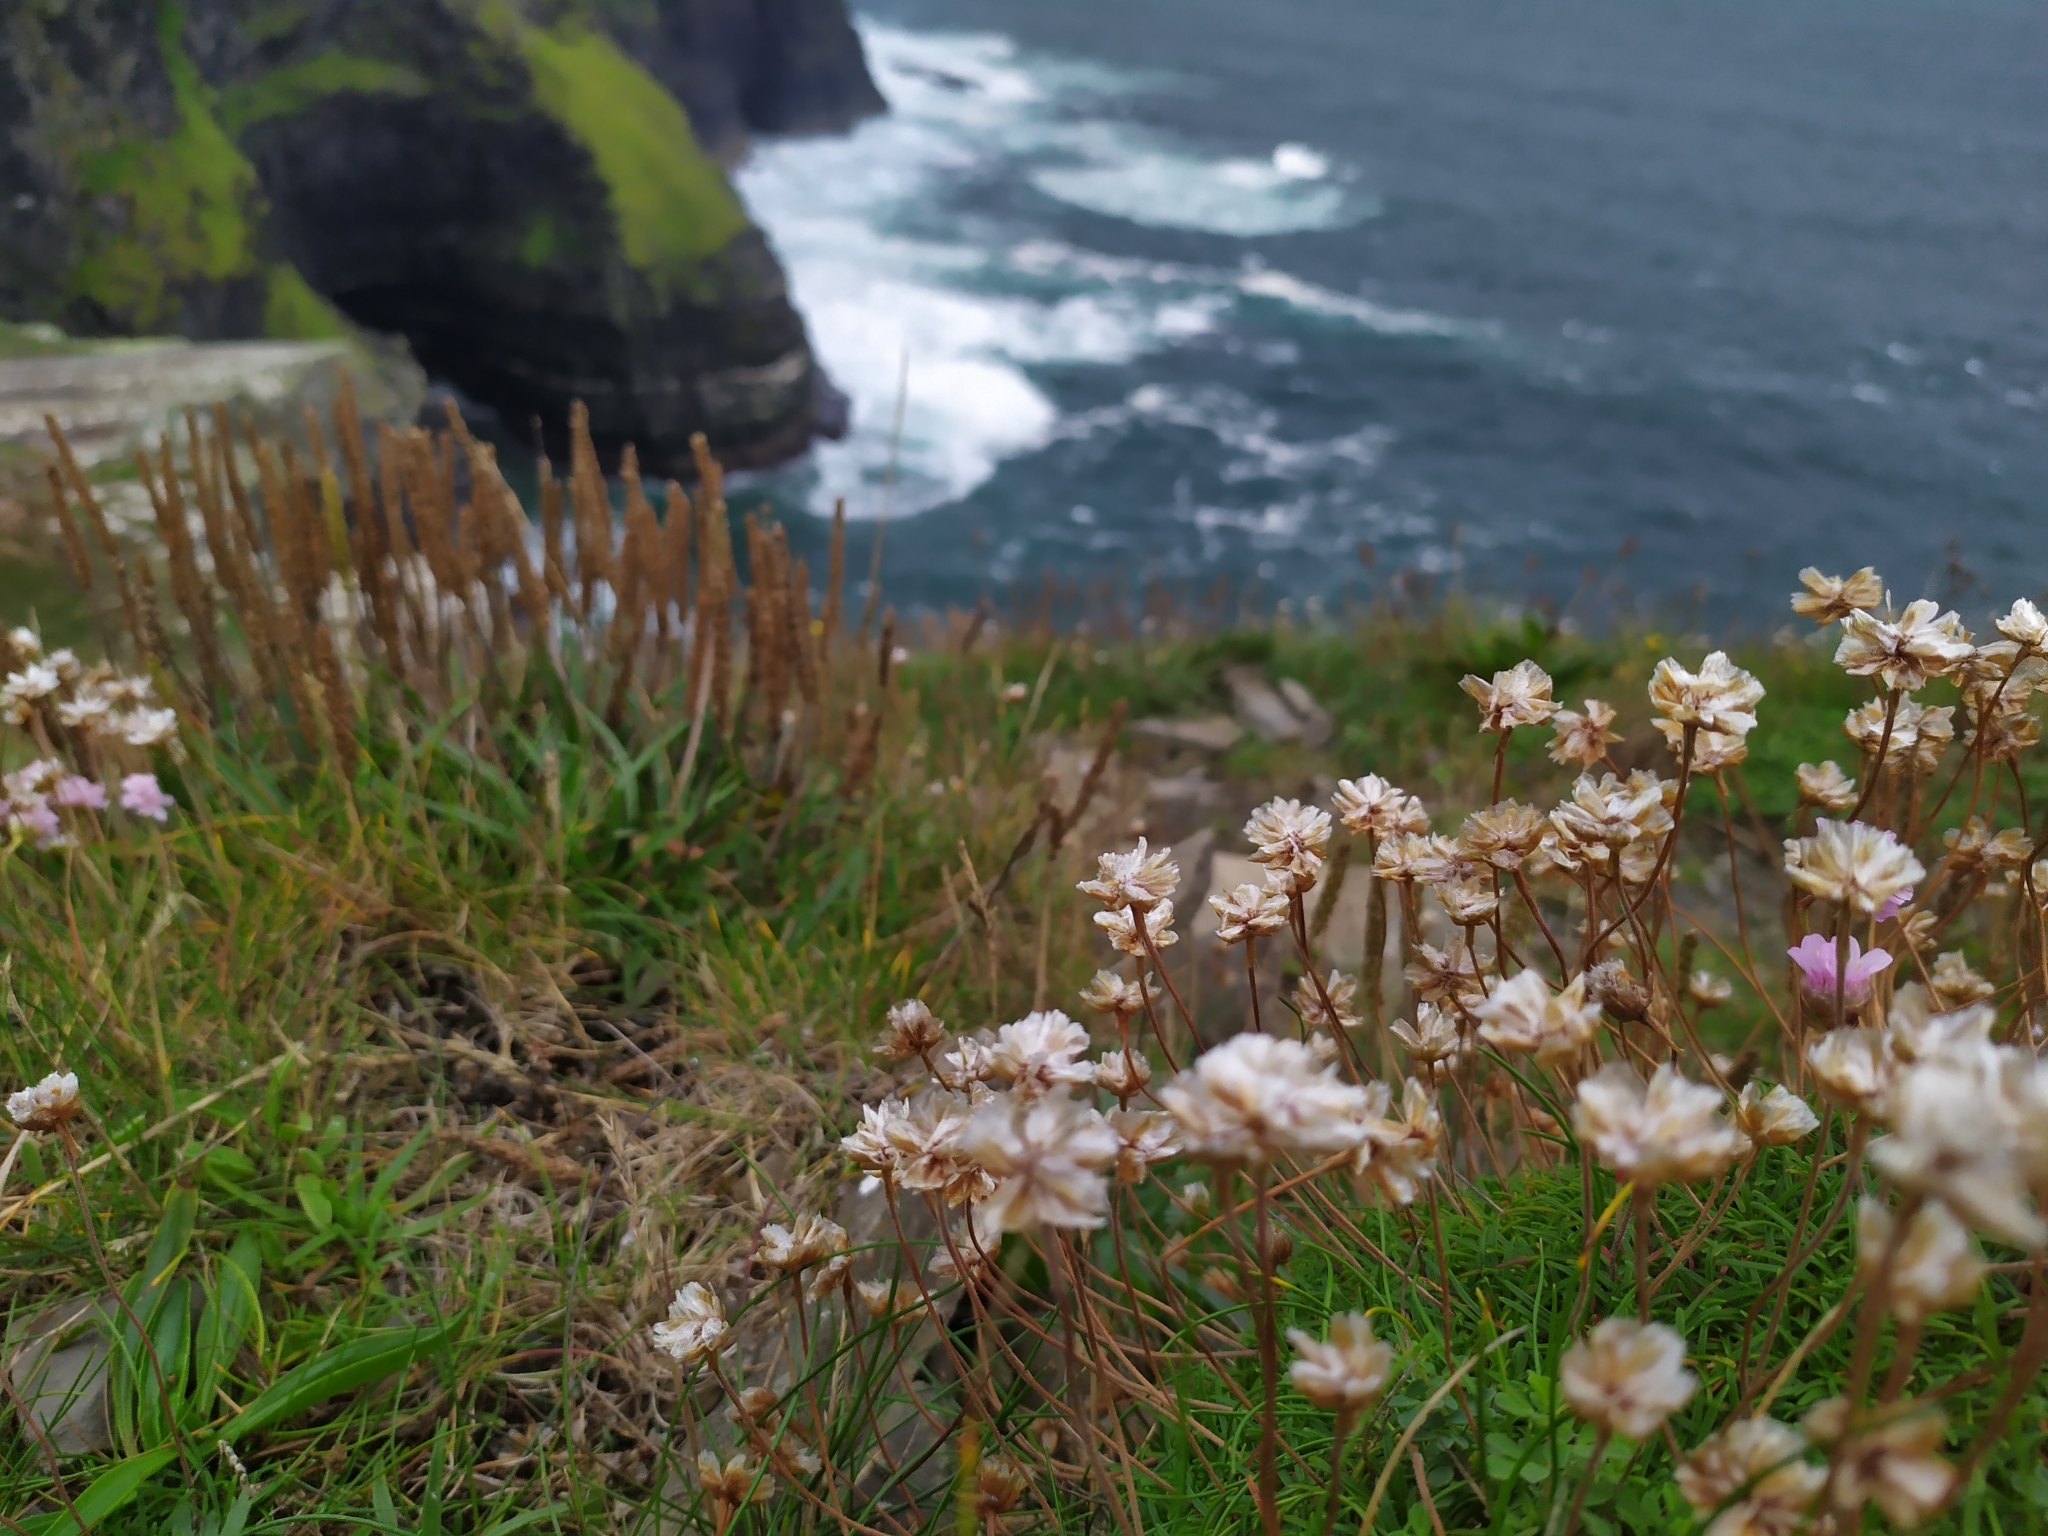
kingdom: Plantae
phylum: Tracheophyta
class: Magnoliopsida
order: Caryophyllales
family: Plumbaginaceae
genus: Armeria
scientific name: Armeria maritima
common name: Thrift
